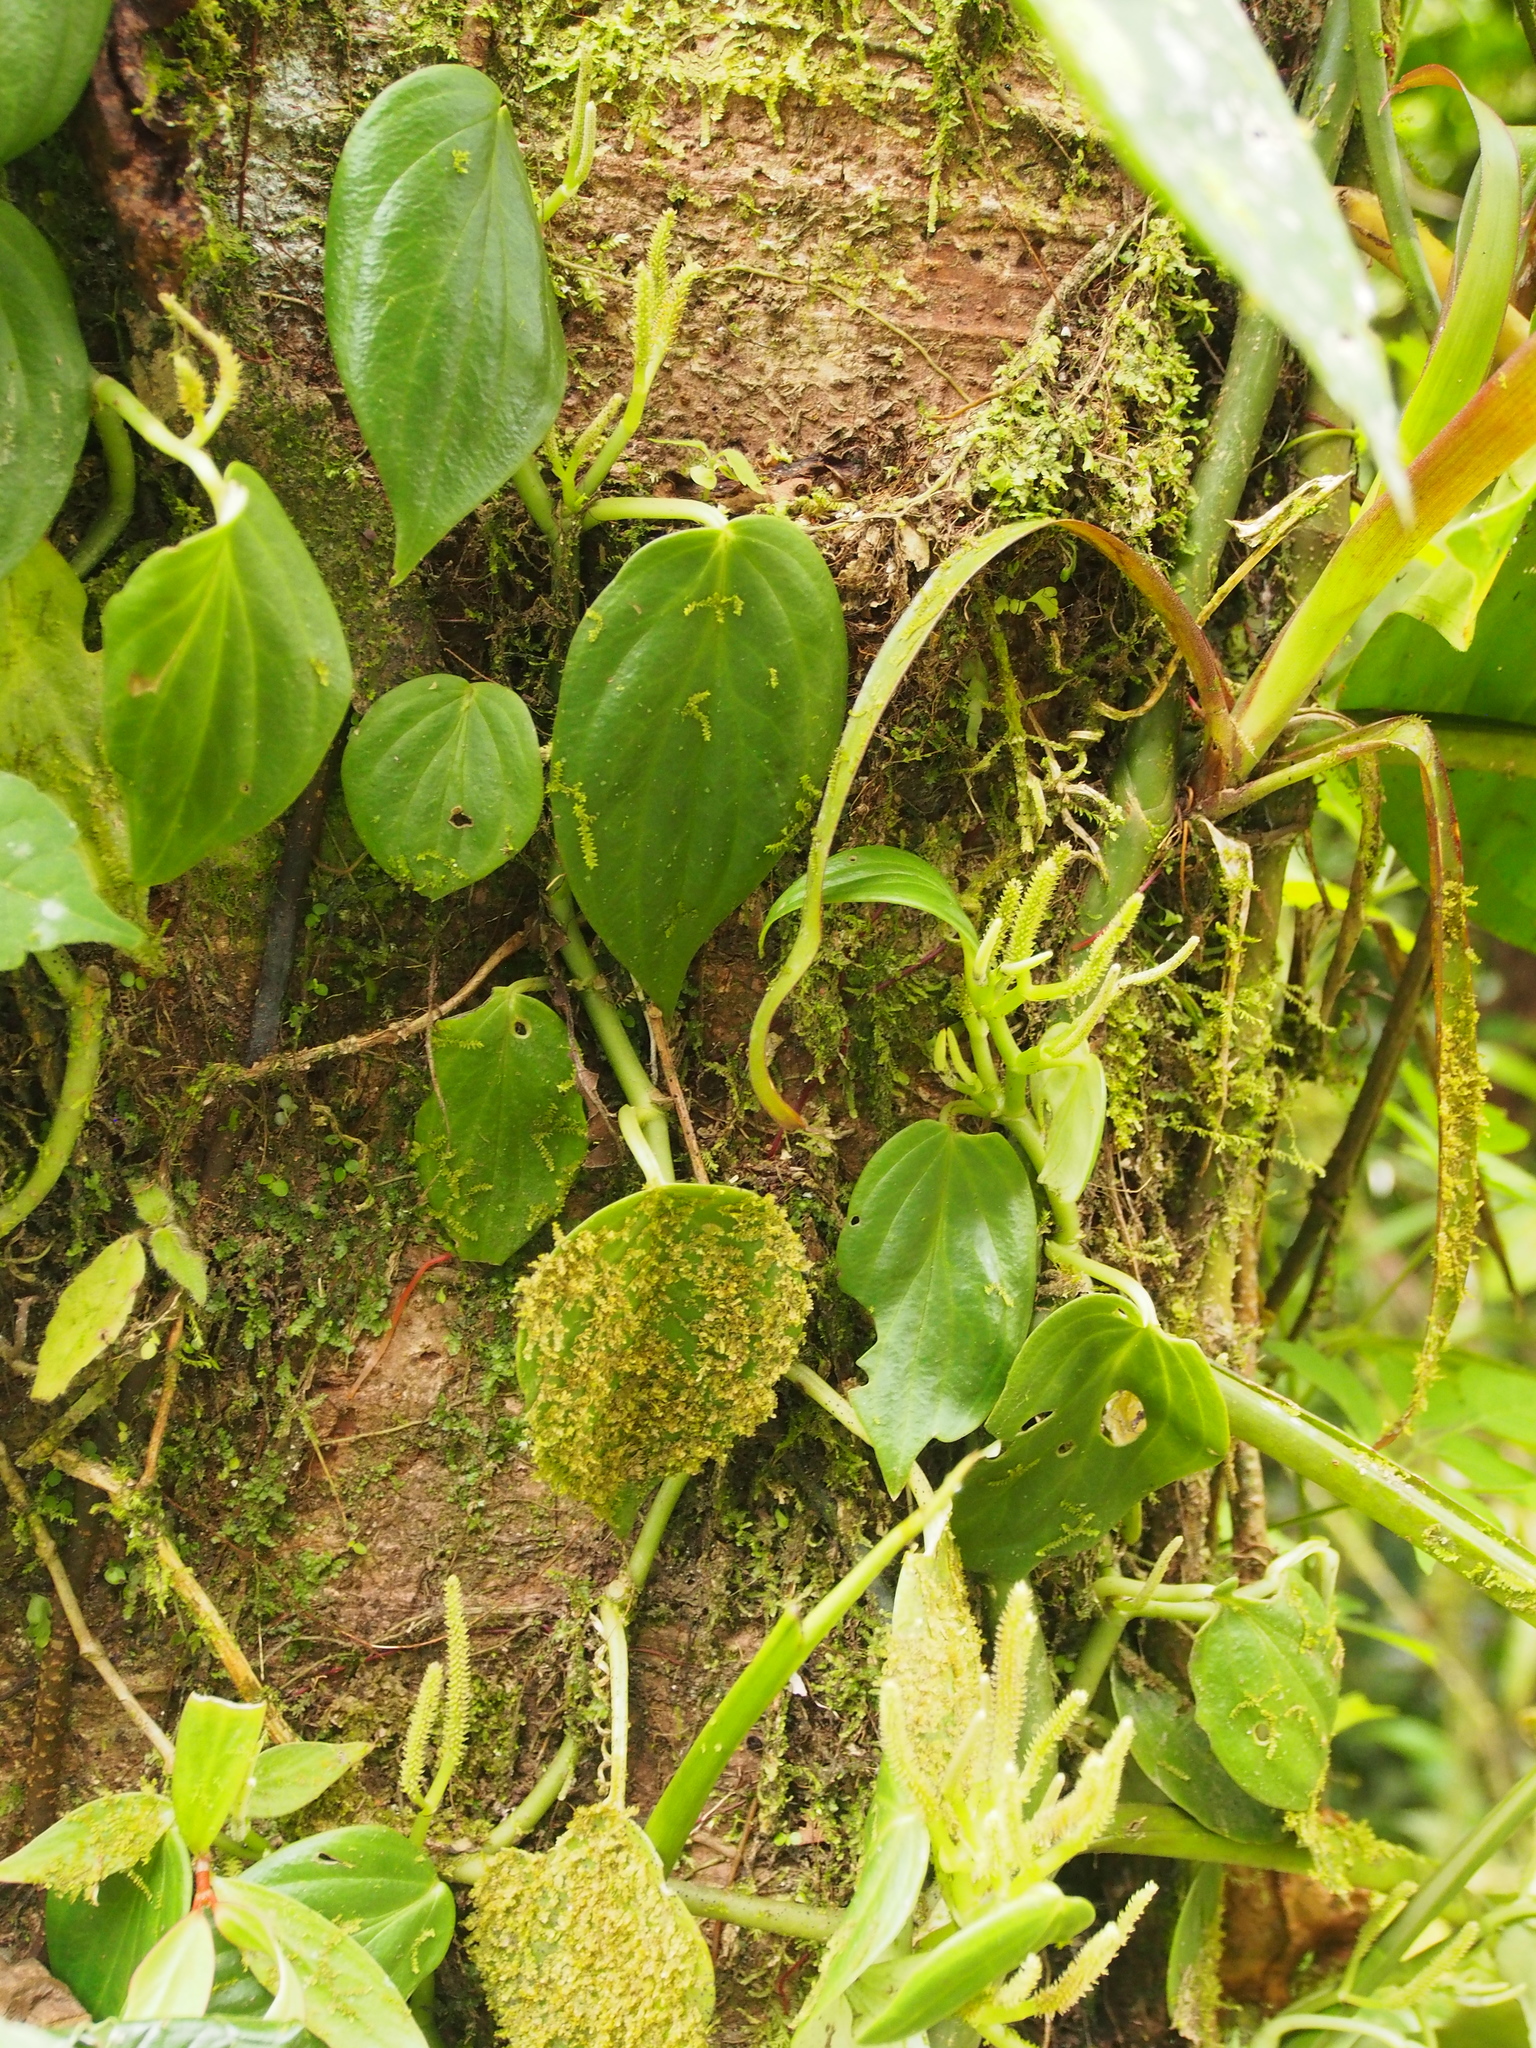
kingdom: Plantae
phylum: Tracheophyta
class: Magnoliopsida
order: Piperales
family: Piperaceae
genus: Peperomia
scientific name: Peperomia distachyos
